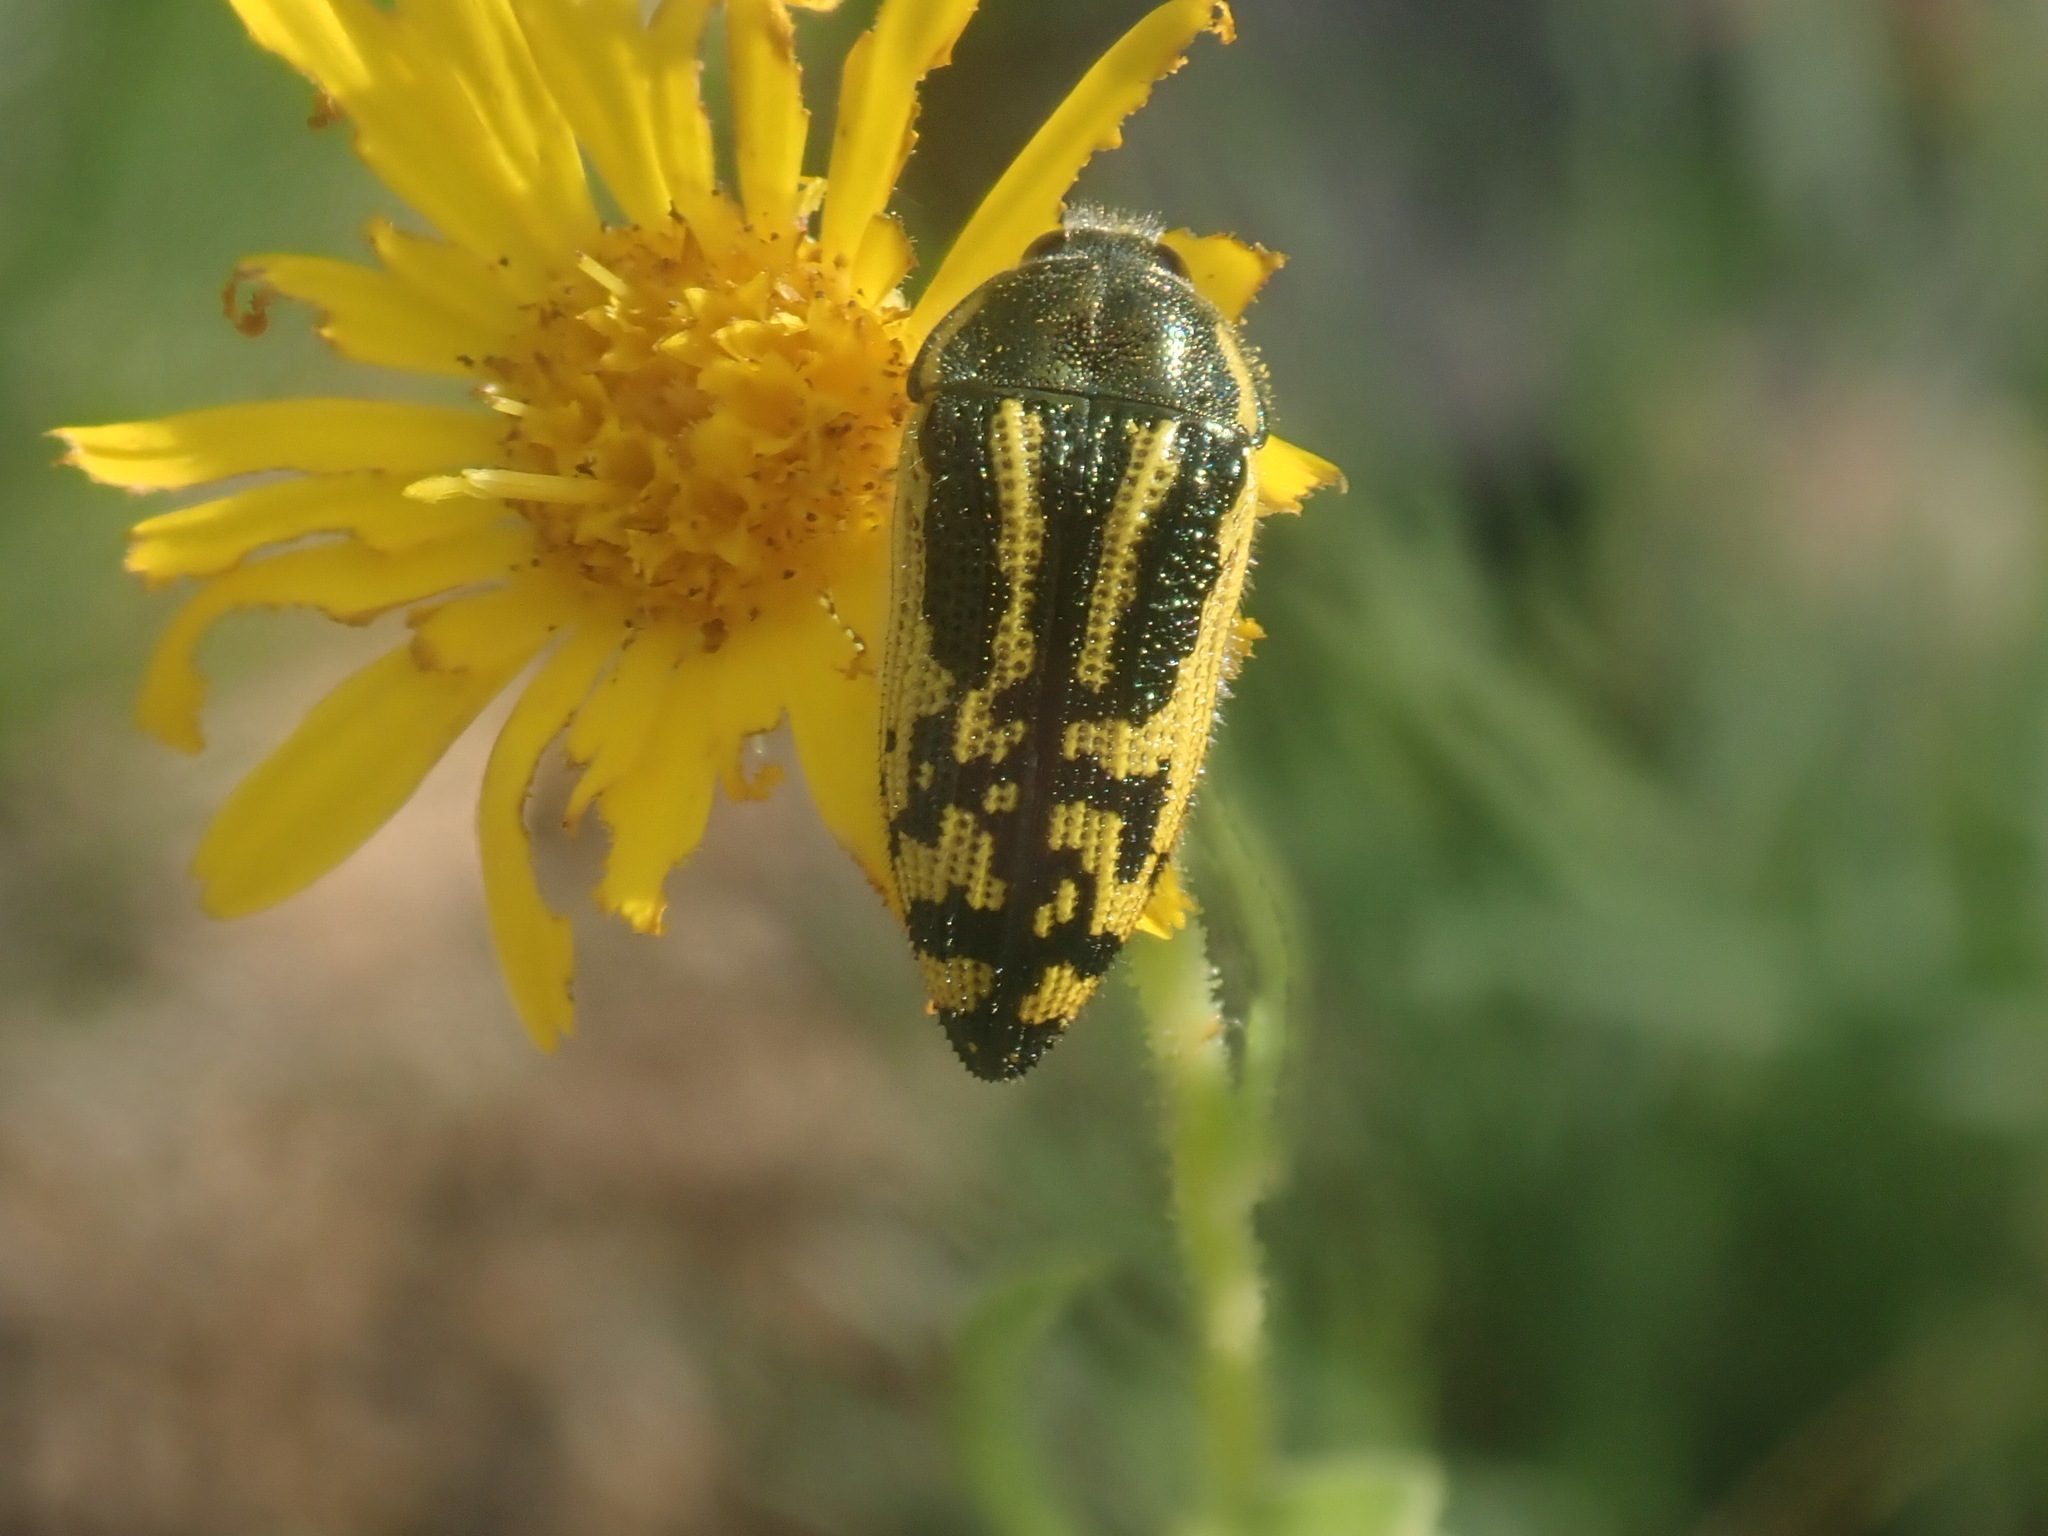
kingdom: Animalia
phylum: Arthropoda
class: Insecta
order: Coleoptera
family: Buprestidae
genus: Acmaeodera
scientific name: Acmaeodera amplicollis
